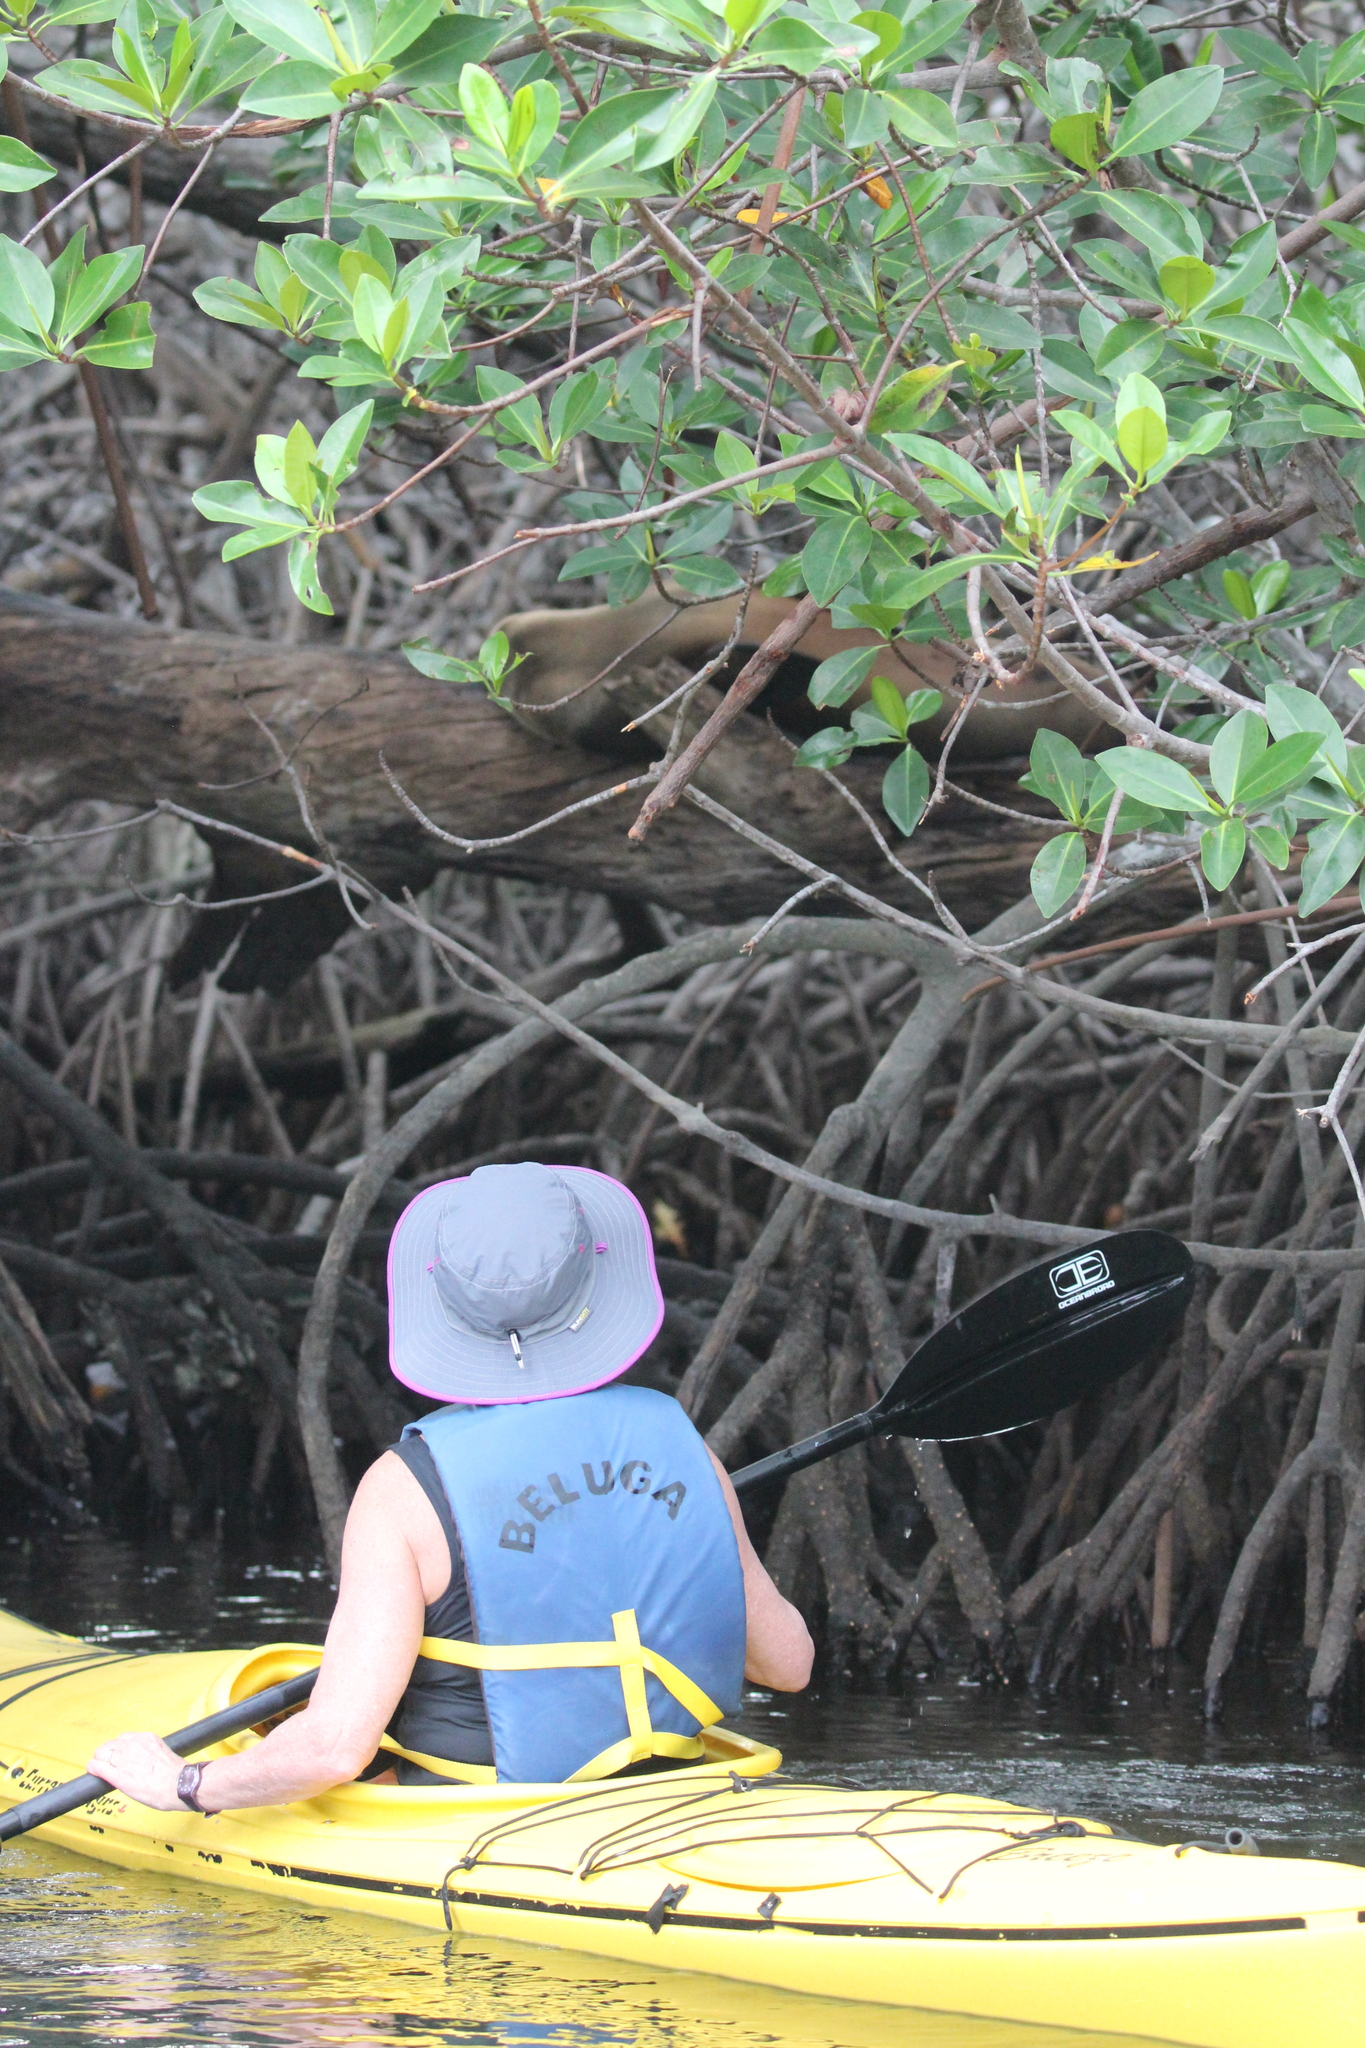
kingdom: Animalia
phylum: Chordata
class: Mammalia
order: Carnivora
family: Otariidae
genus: Zalophus
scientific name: Zalophus wollebaeki
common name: Galapagos sea lion
